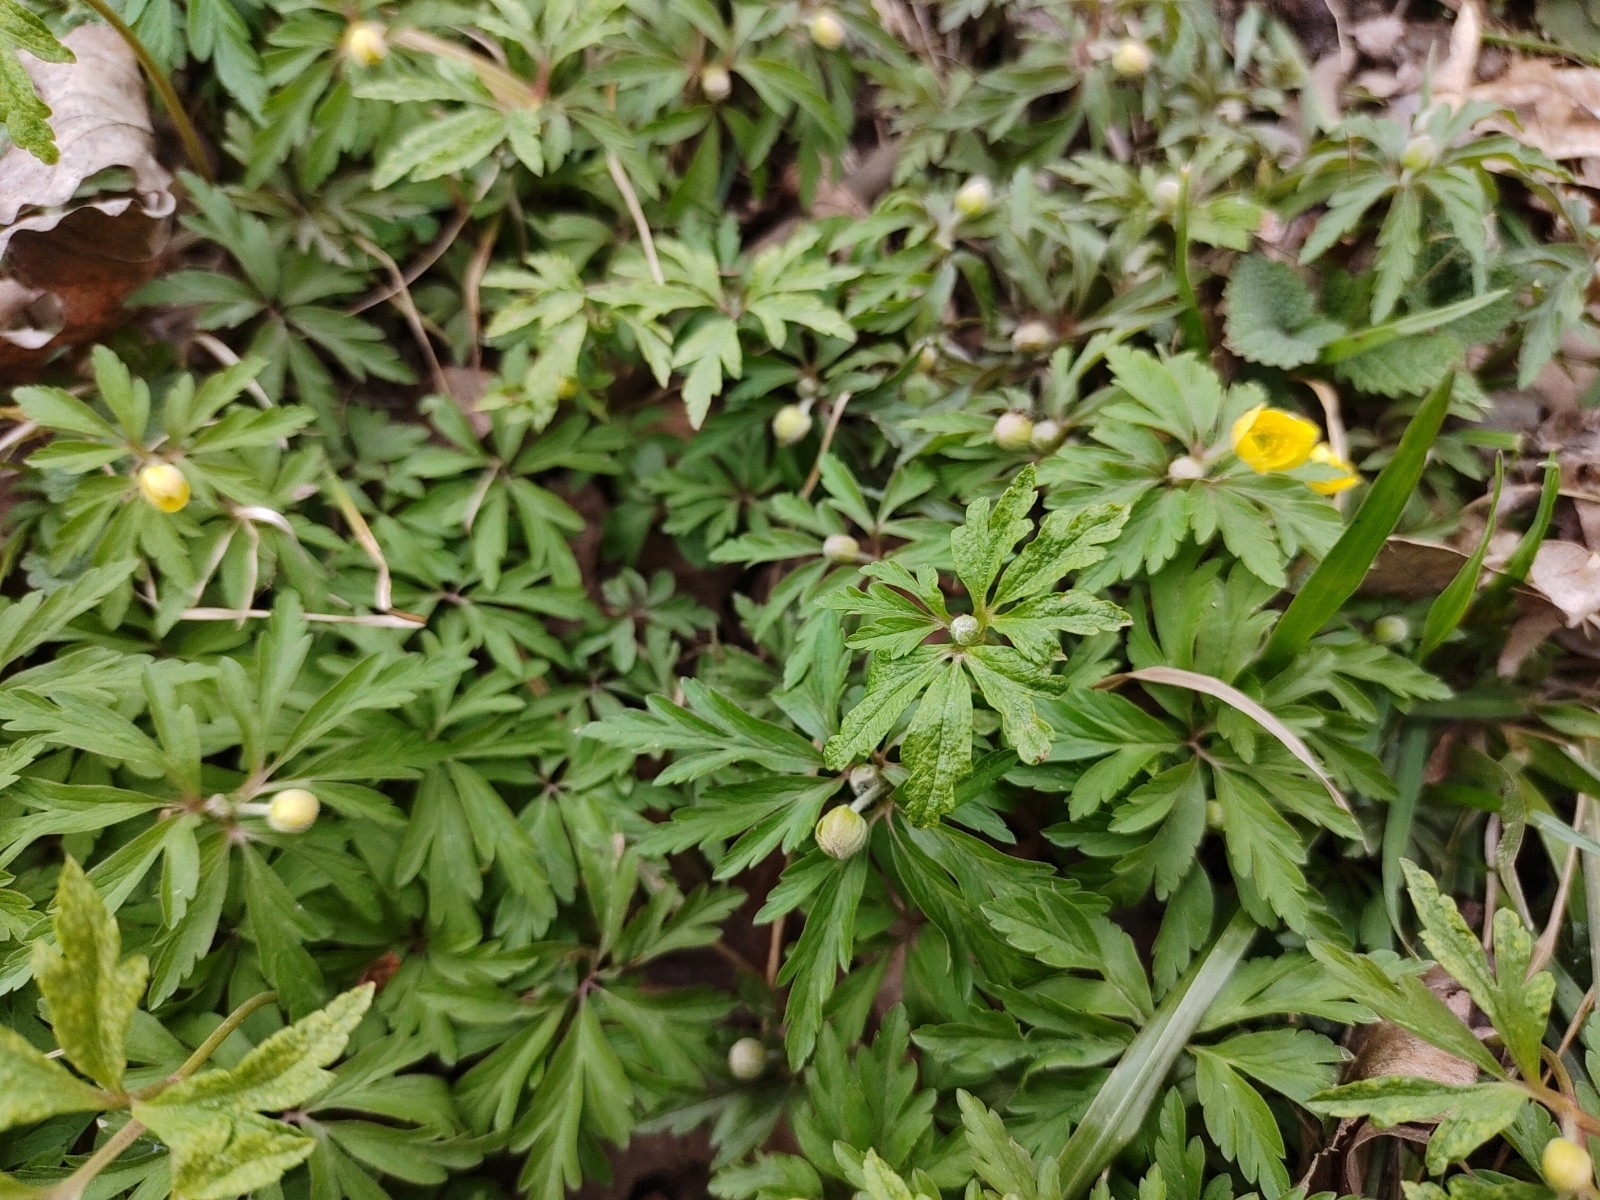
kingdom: Plantae
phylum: Tracheophyta
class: Magnoliopsida
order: Ranunculales
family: Ranunculaceae
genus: Anemone
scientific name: Anemone ranunculoides
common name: Yellow anemone
